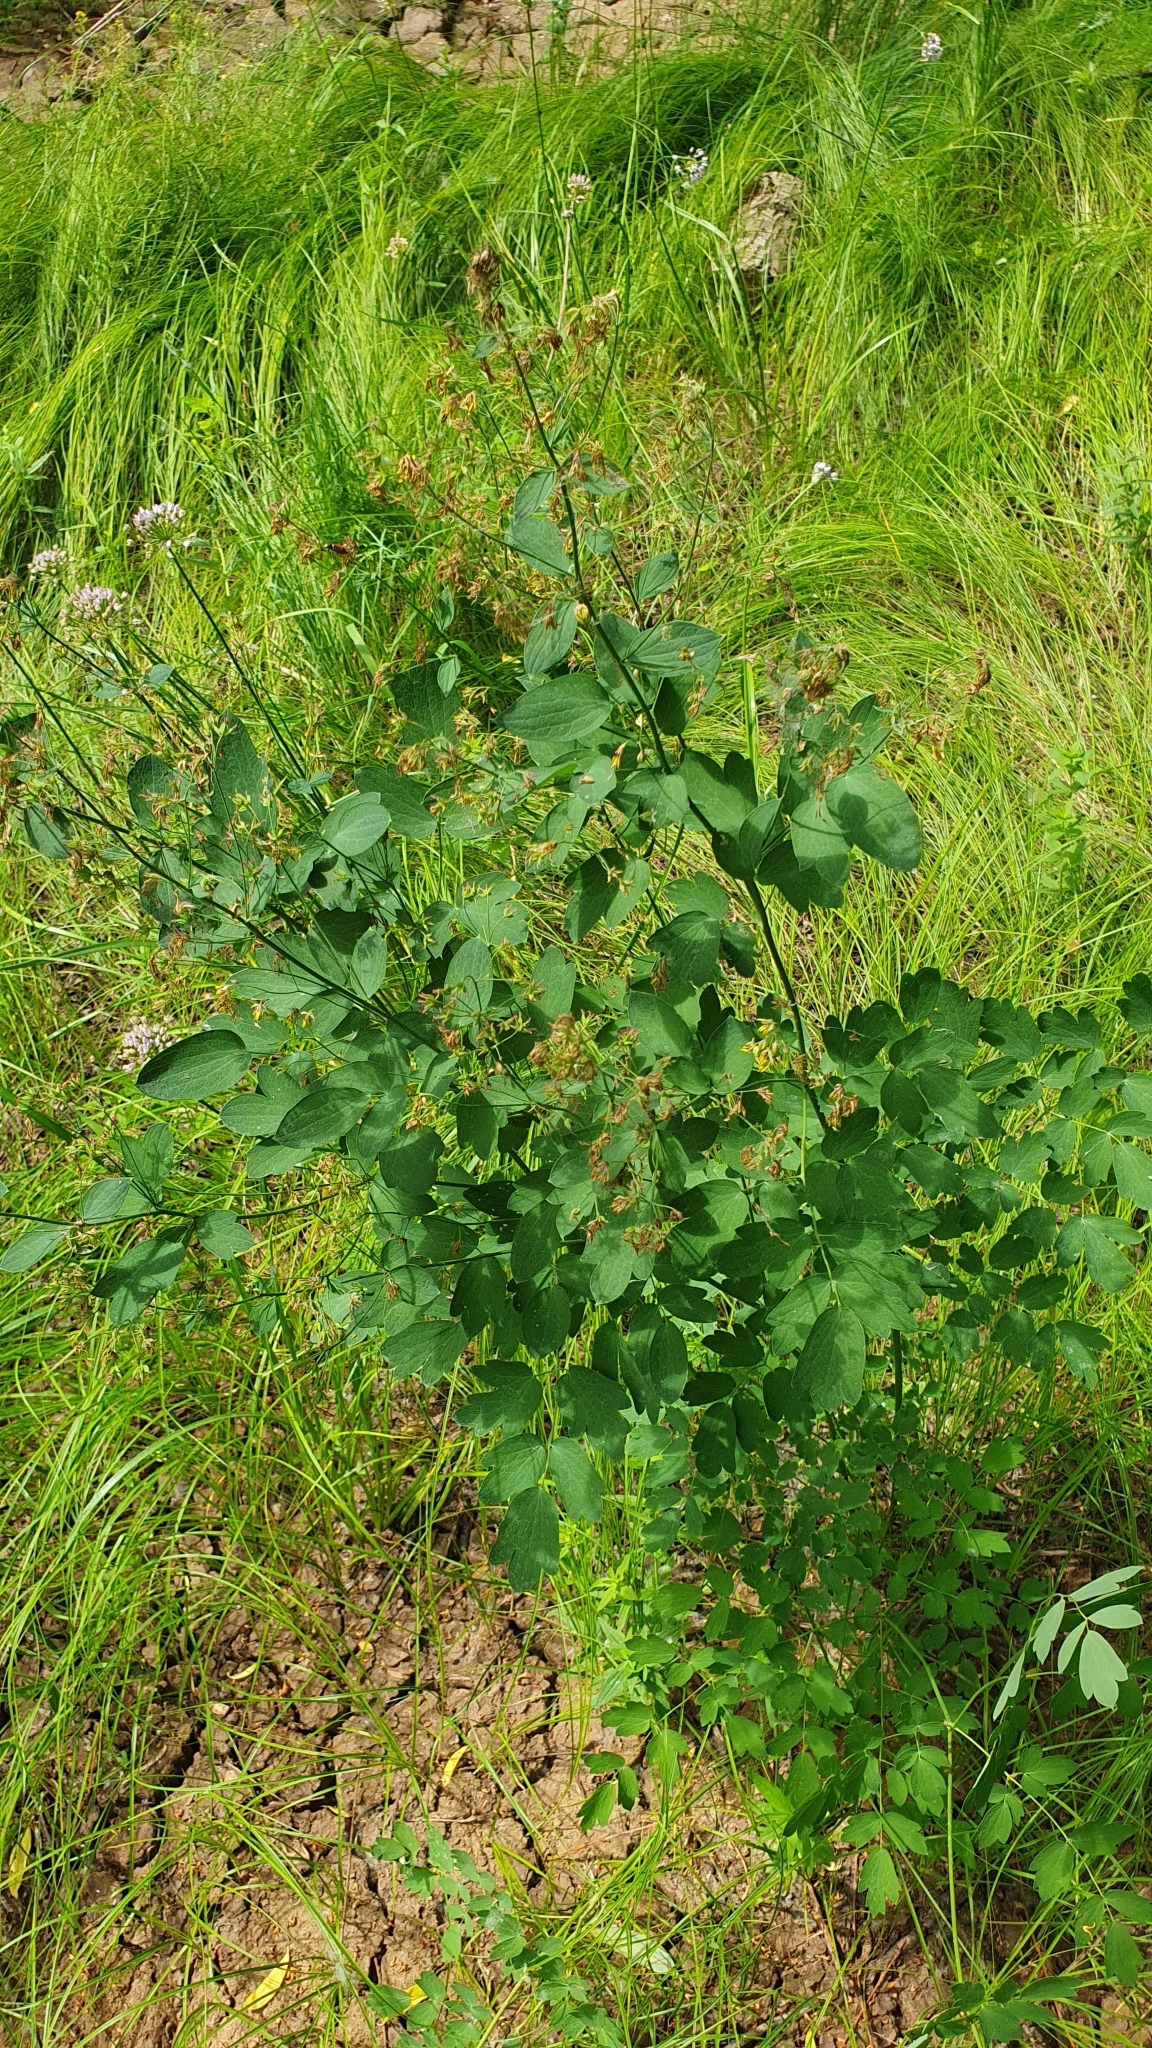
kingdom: Plantae
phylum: Tracheophyta
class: Magnoliopsida
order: Ranunculales
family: Ranunculaceae
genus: Thalictrum
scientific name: Thalictrum flavum
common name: Common meadow-rue
